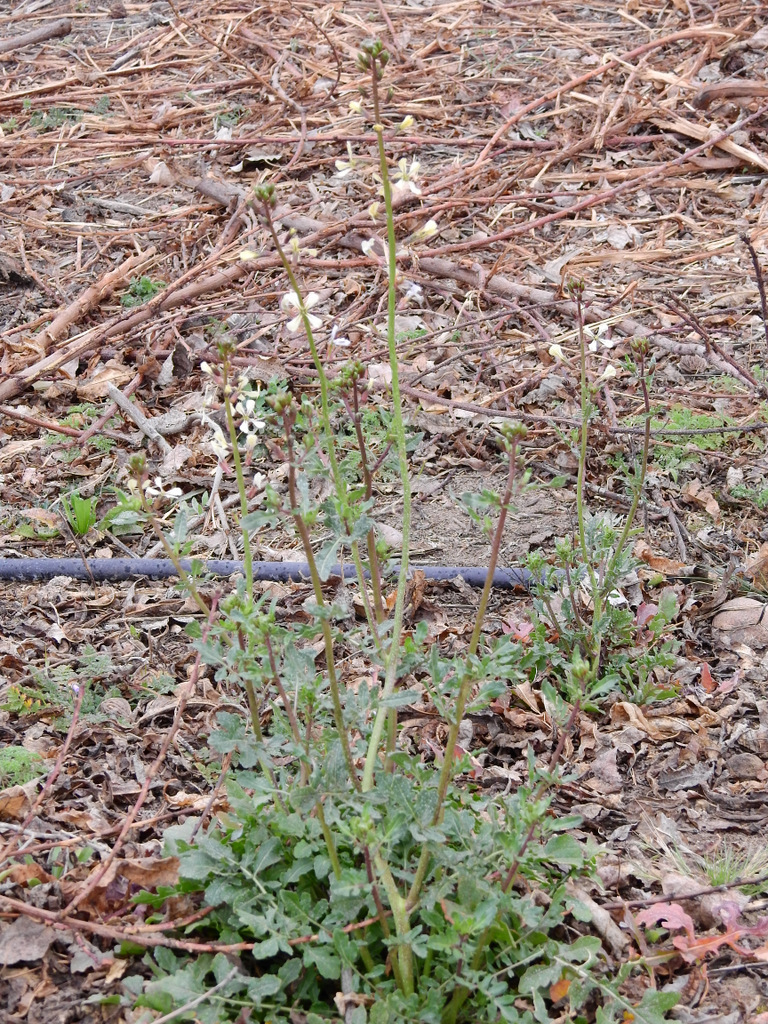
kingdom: Plantae
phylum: Tracheophyta
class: Magnoliopsida
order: Brassicales
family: Brassicaceae
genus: Eruca
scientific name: Eruca vesicaria
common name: Garden rocket
